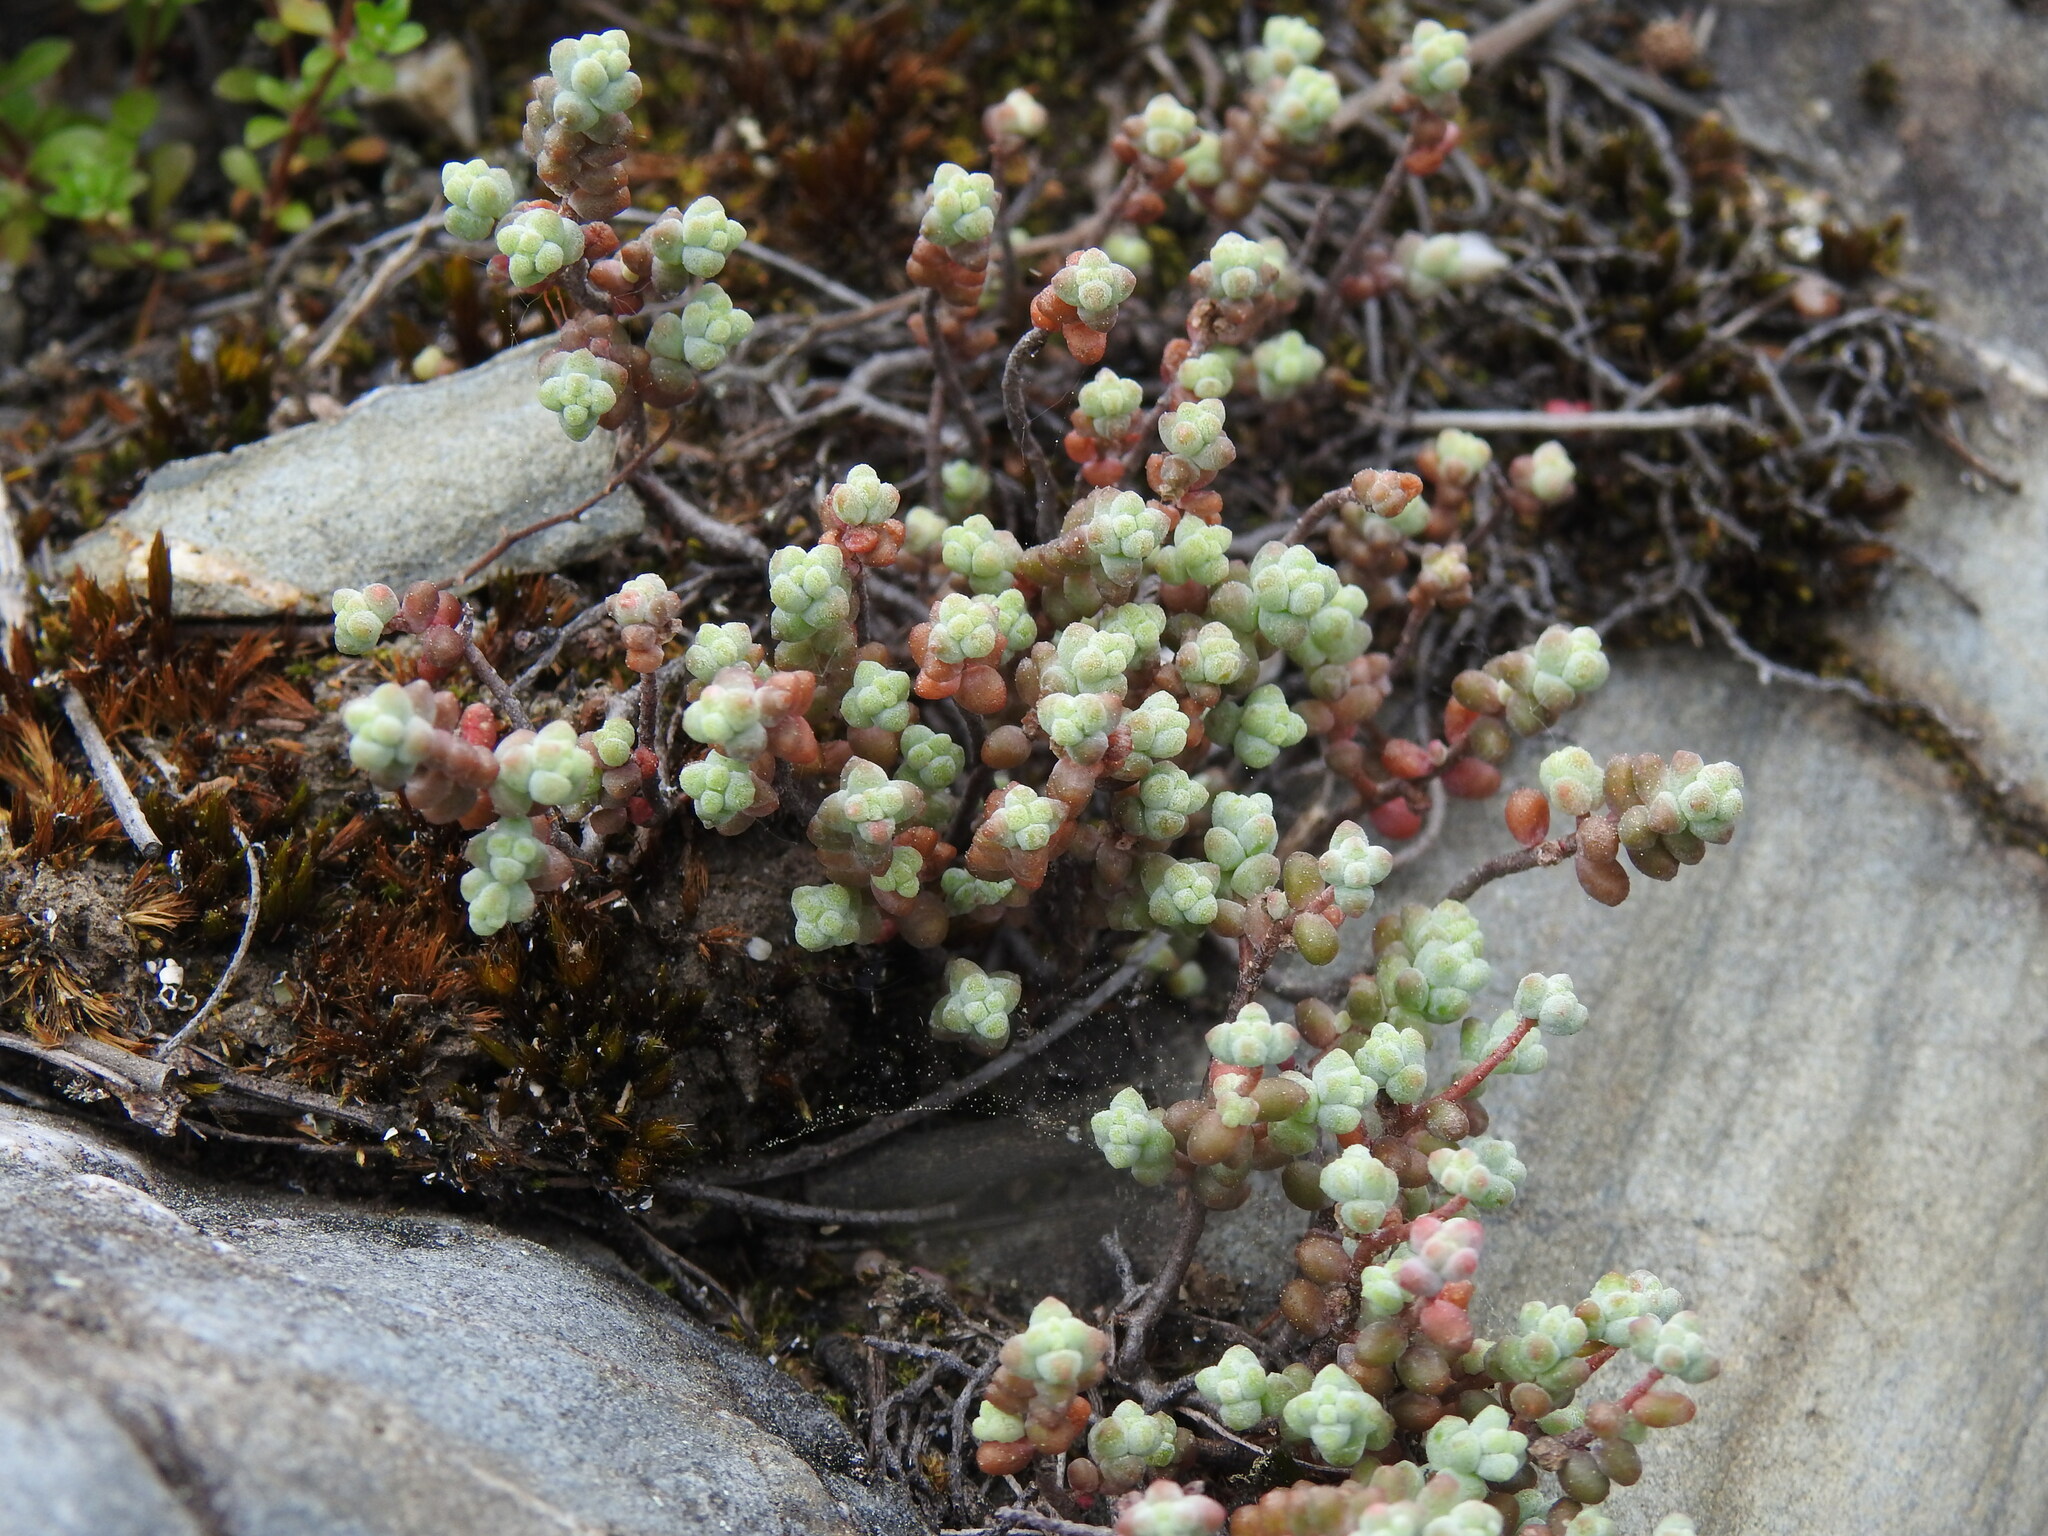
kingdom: Plantae
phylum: Tracheophyta
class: Magnoliopsida
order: Saxifragales
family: Crassulaceae
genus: Sedum
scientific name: Sedum brevifolium
